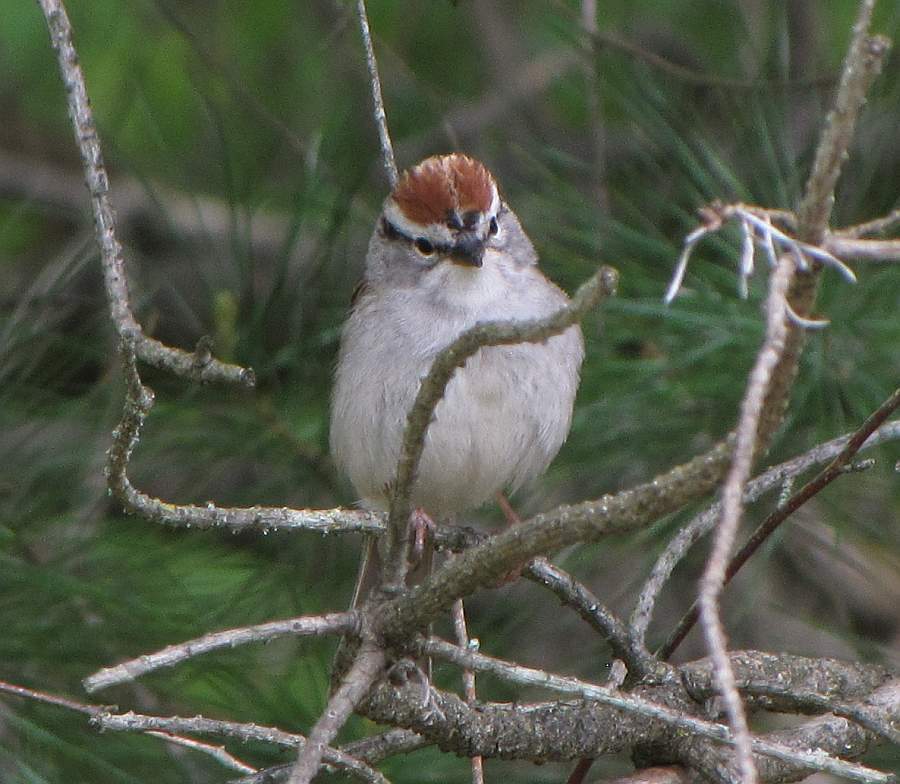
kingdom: Animalia
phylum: Chordata
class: Aves
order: Passeriformes
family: Passerellidae
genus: Spizella
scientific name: Spizella passerina
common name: Chipping sparrow
